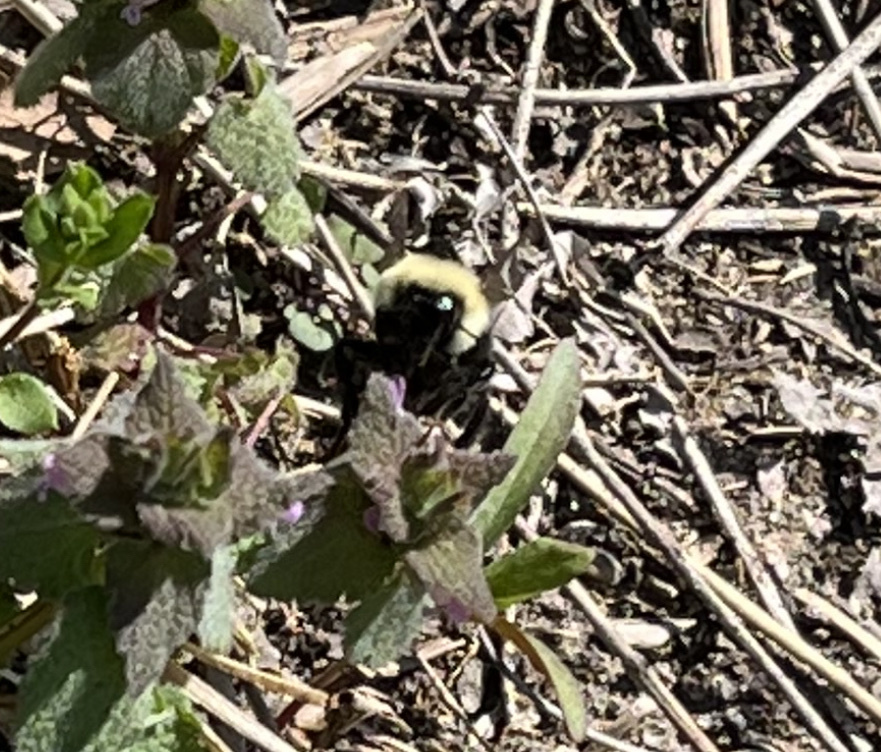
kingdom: Animalia
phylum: Arthropoda
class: Insecta
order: Hymenoptera
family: Apidae
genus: Bombus
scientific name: Bombus bimaculatus
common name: Two-spotted bumble bee
